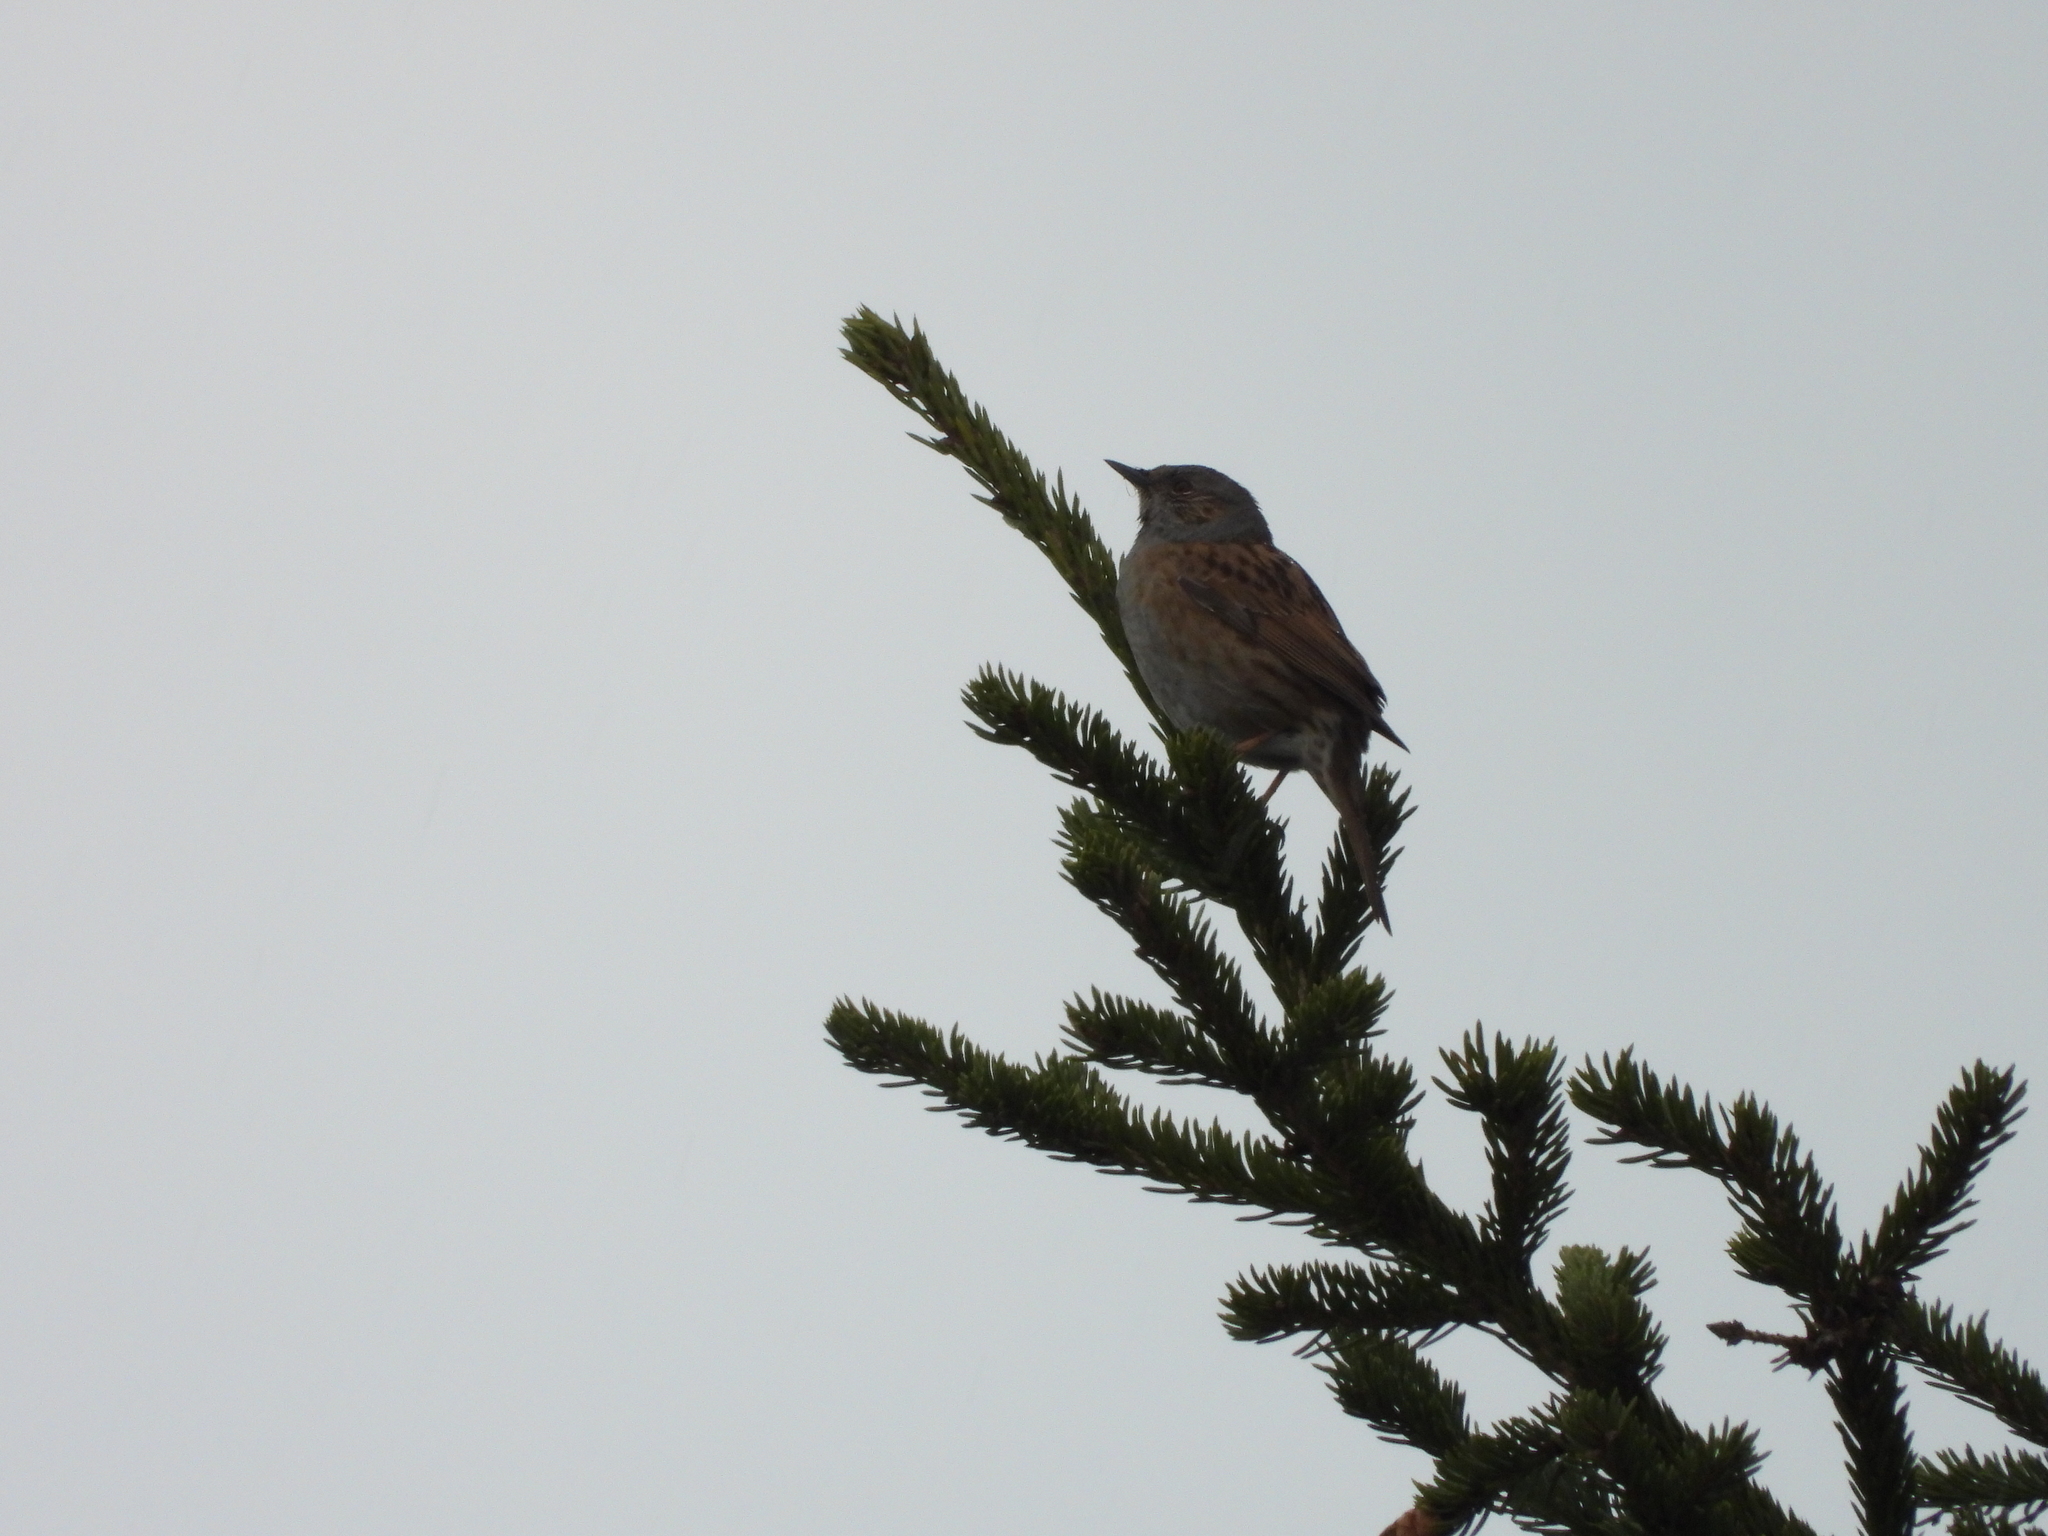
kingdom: Animalia
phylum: Chordata
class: Aves
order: Passeriformes
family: Prunellidae
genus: Prunella
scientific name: Prunella modularis
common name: Dunnock
